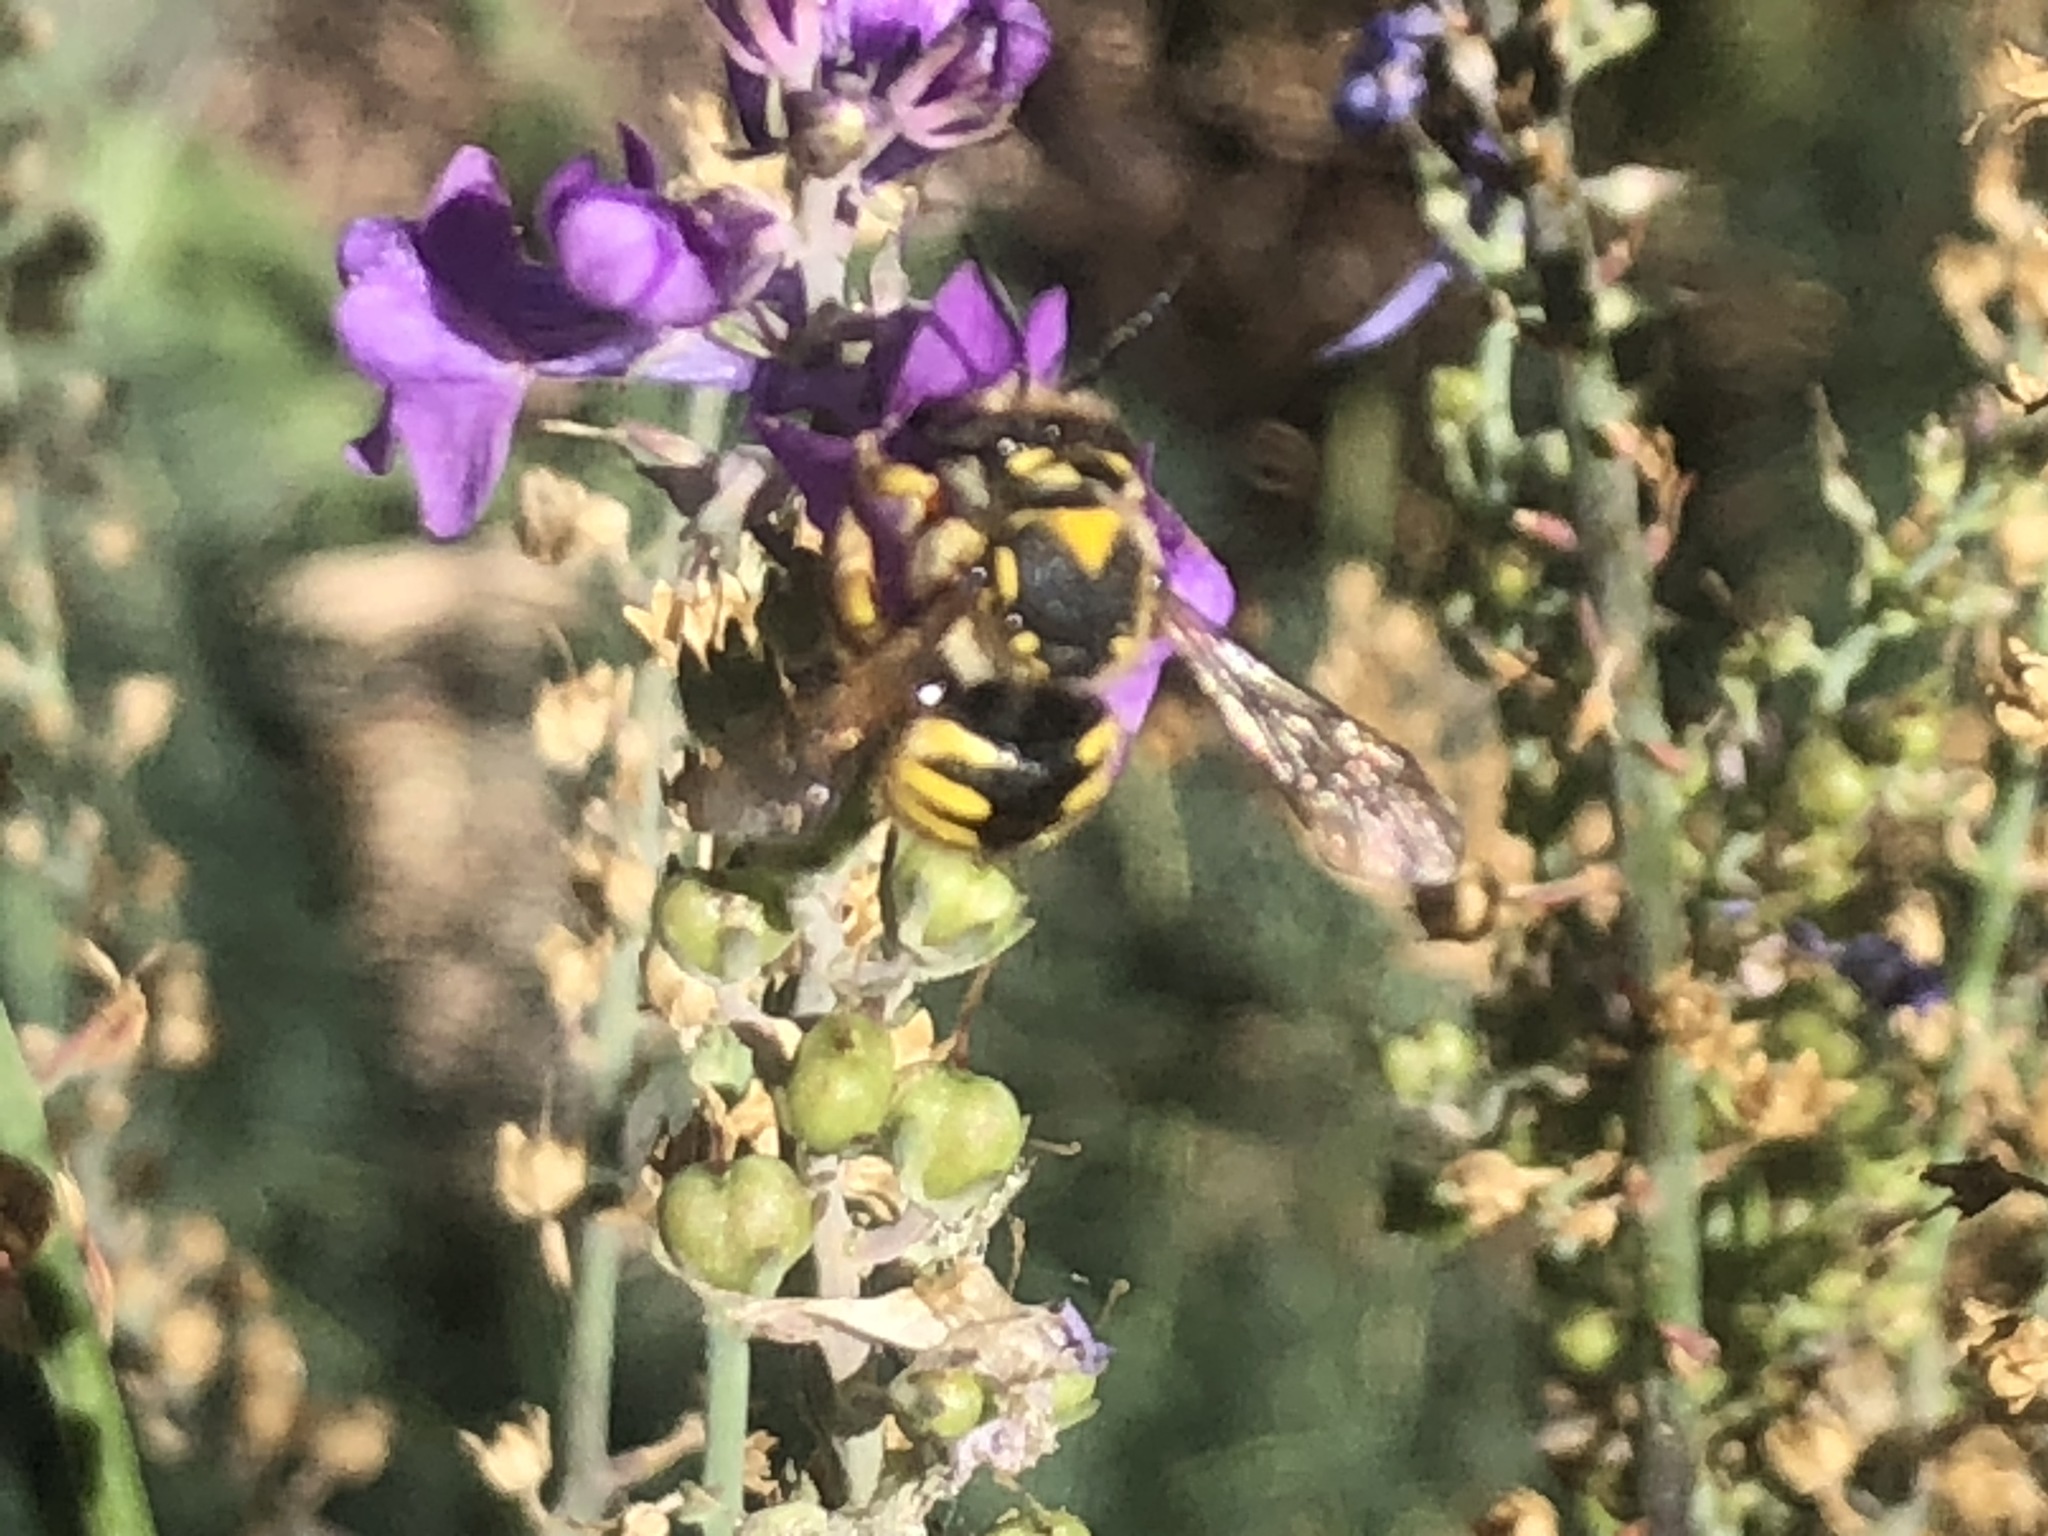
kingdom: Animalia
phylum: Arthropoda
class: Insecta
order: Hymenoptera
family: Megachilidae
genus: Anthidium
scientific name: Anthidium manicatum
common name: Wool carder bee
